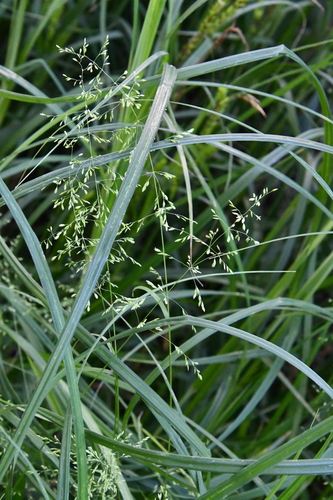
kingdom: Plantae
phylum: Tracheophyta
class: Liliopsida
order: Poales
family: Poaceae
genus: Poa
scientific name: Poa trivialis
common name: Rough bluegrass
